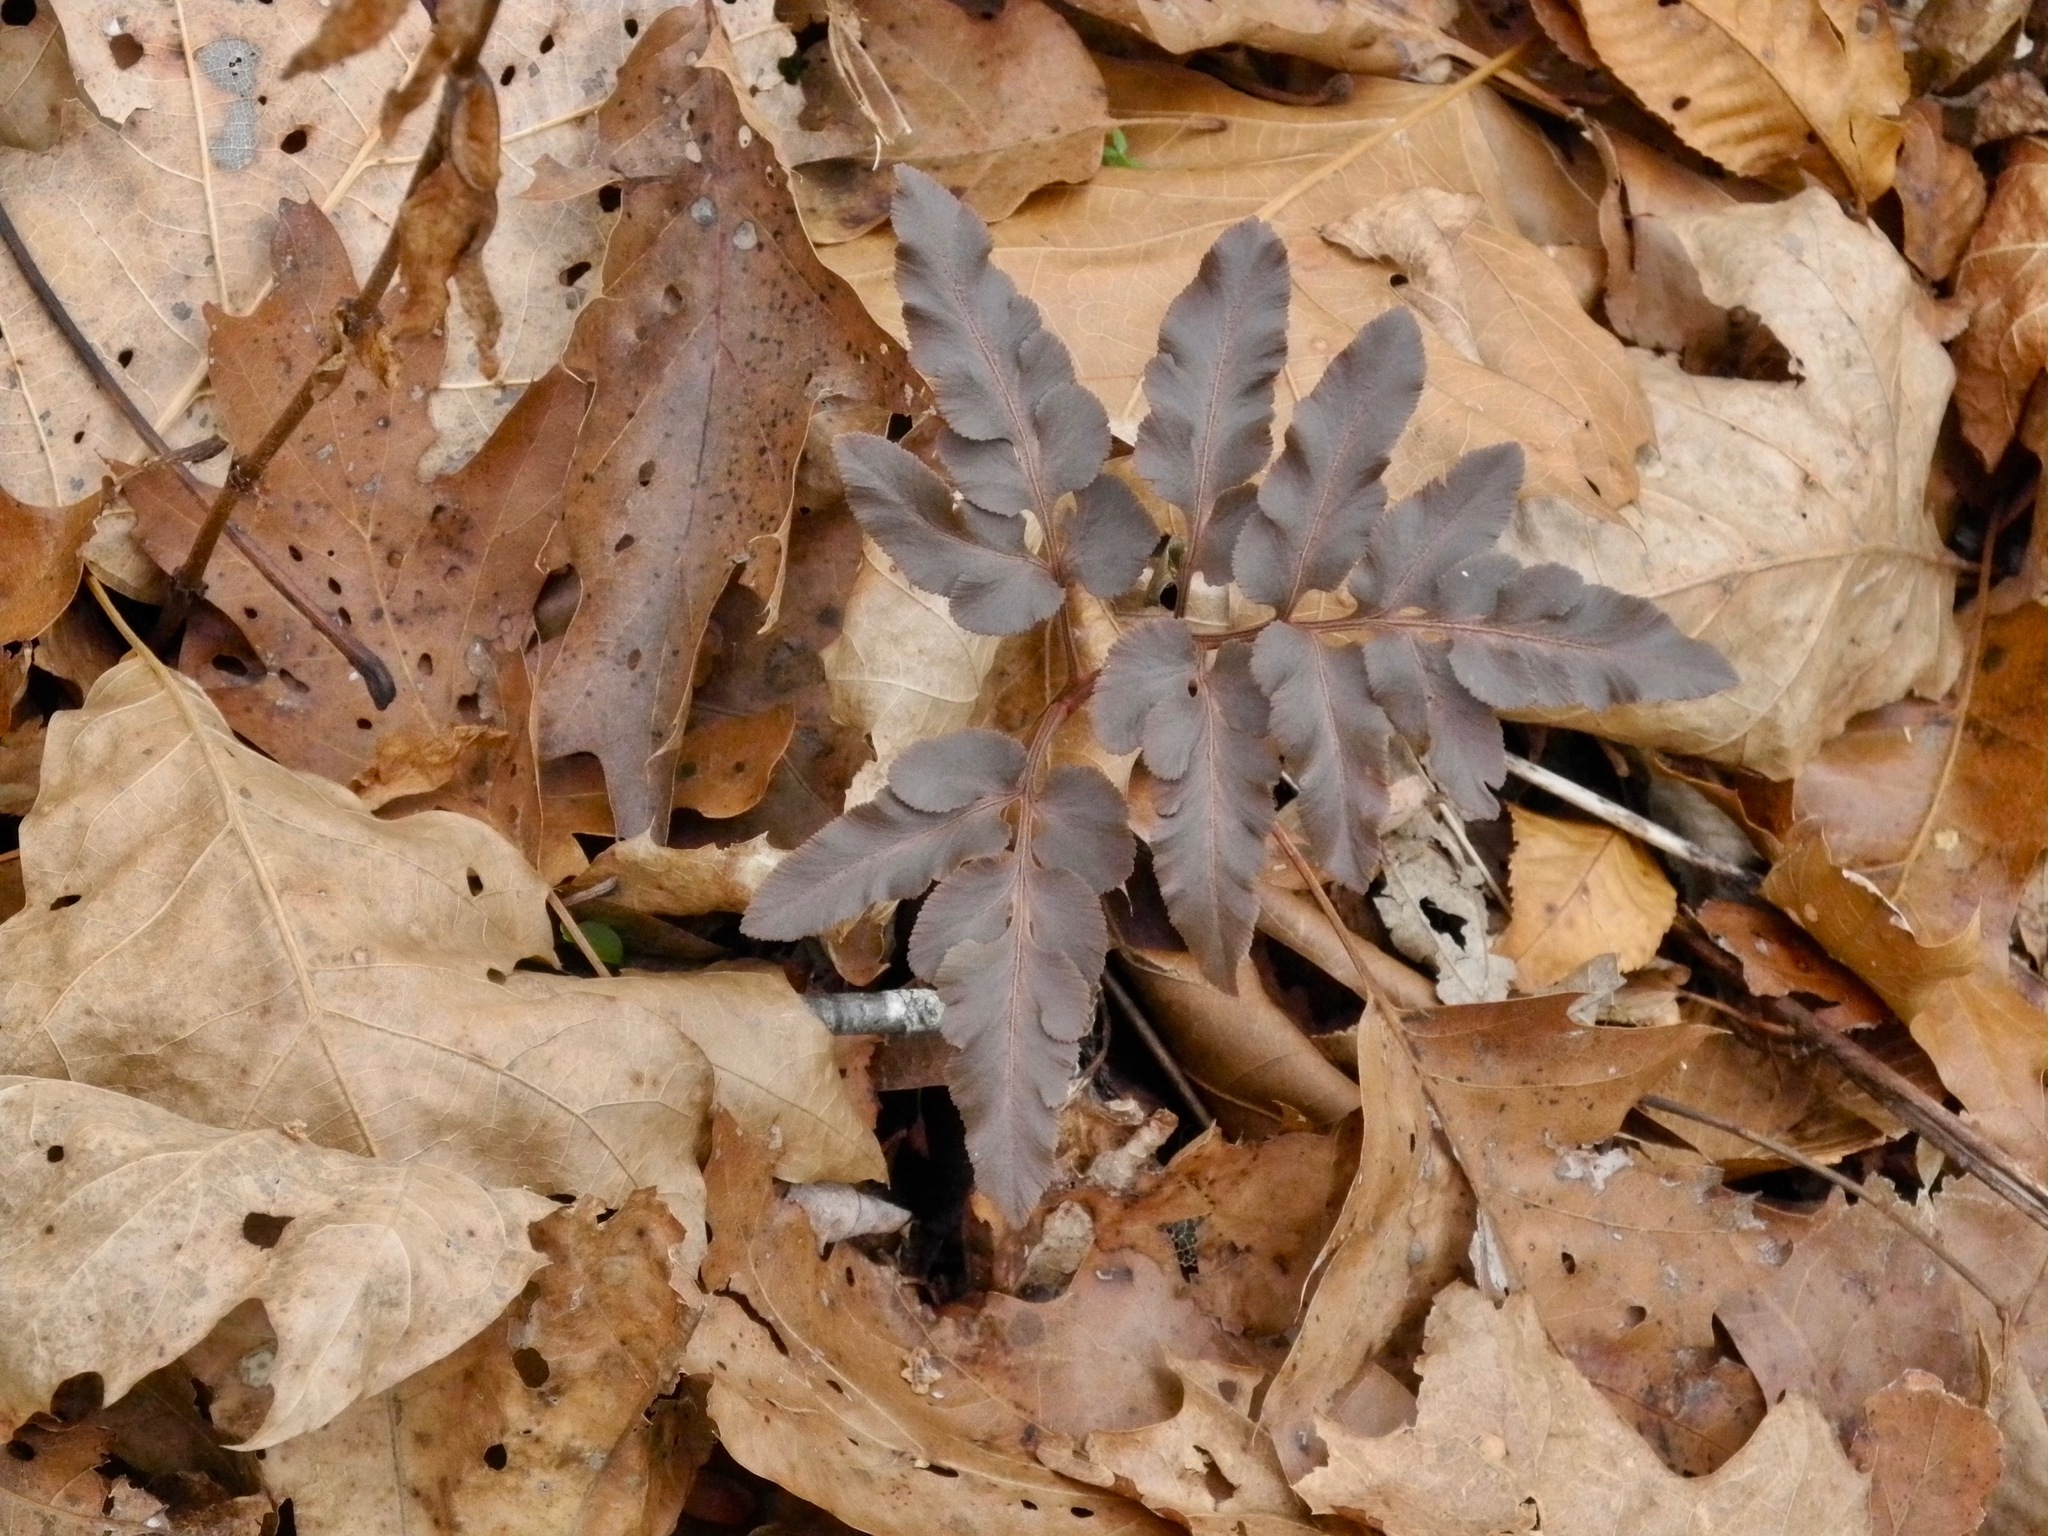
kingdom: Plantae
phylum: Tracheophyta
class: Polypodiopsida
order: Ophioglossales
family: Ophioglossaceae
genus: Sceptridium
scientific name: Sceptridium dissectum
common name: Cut-leaved grapefern
